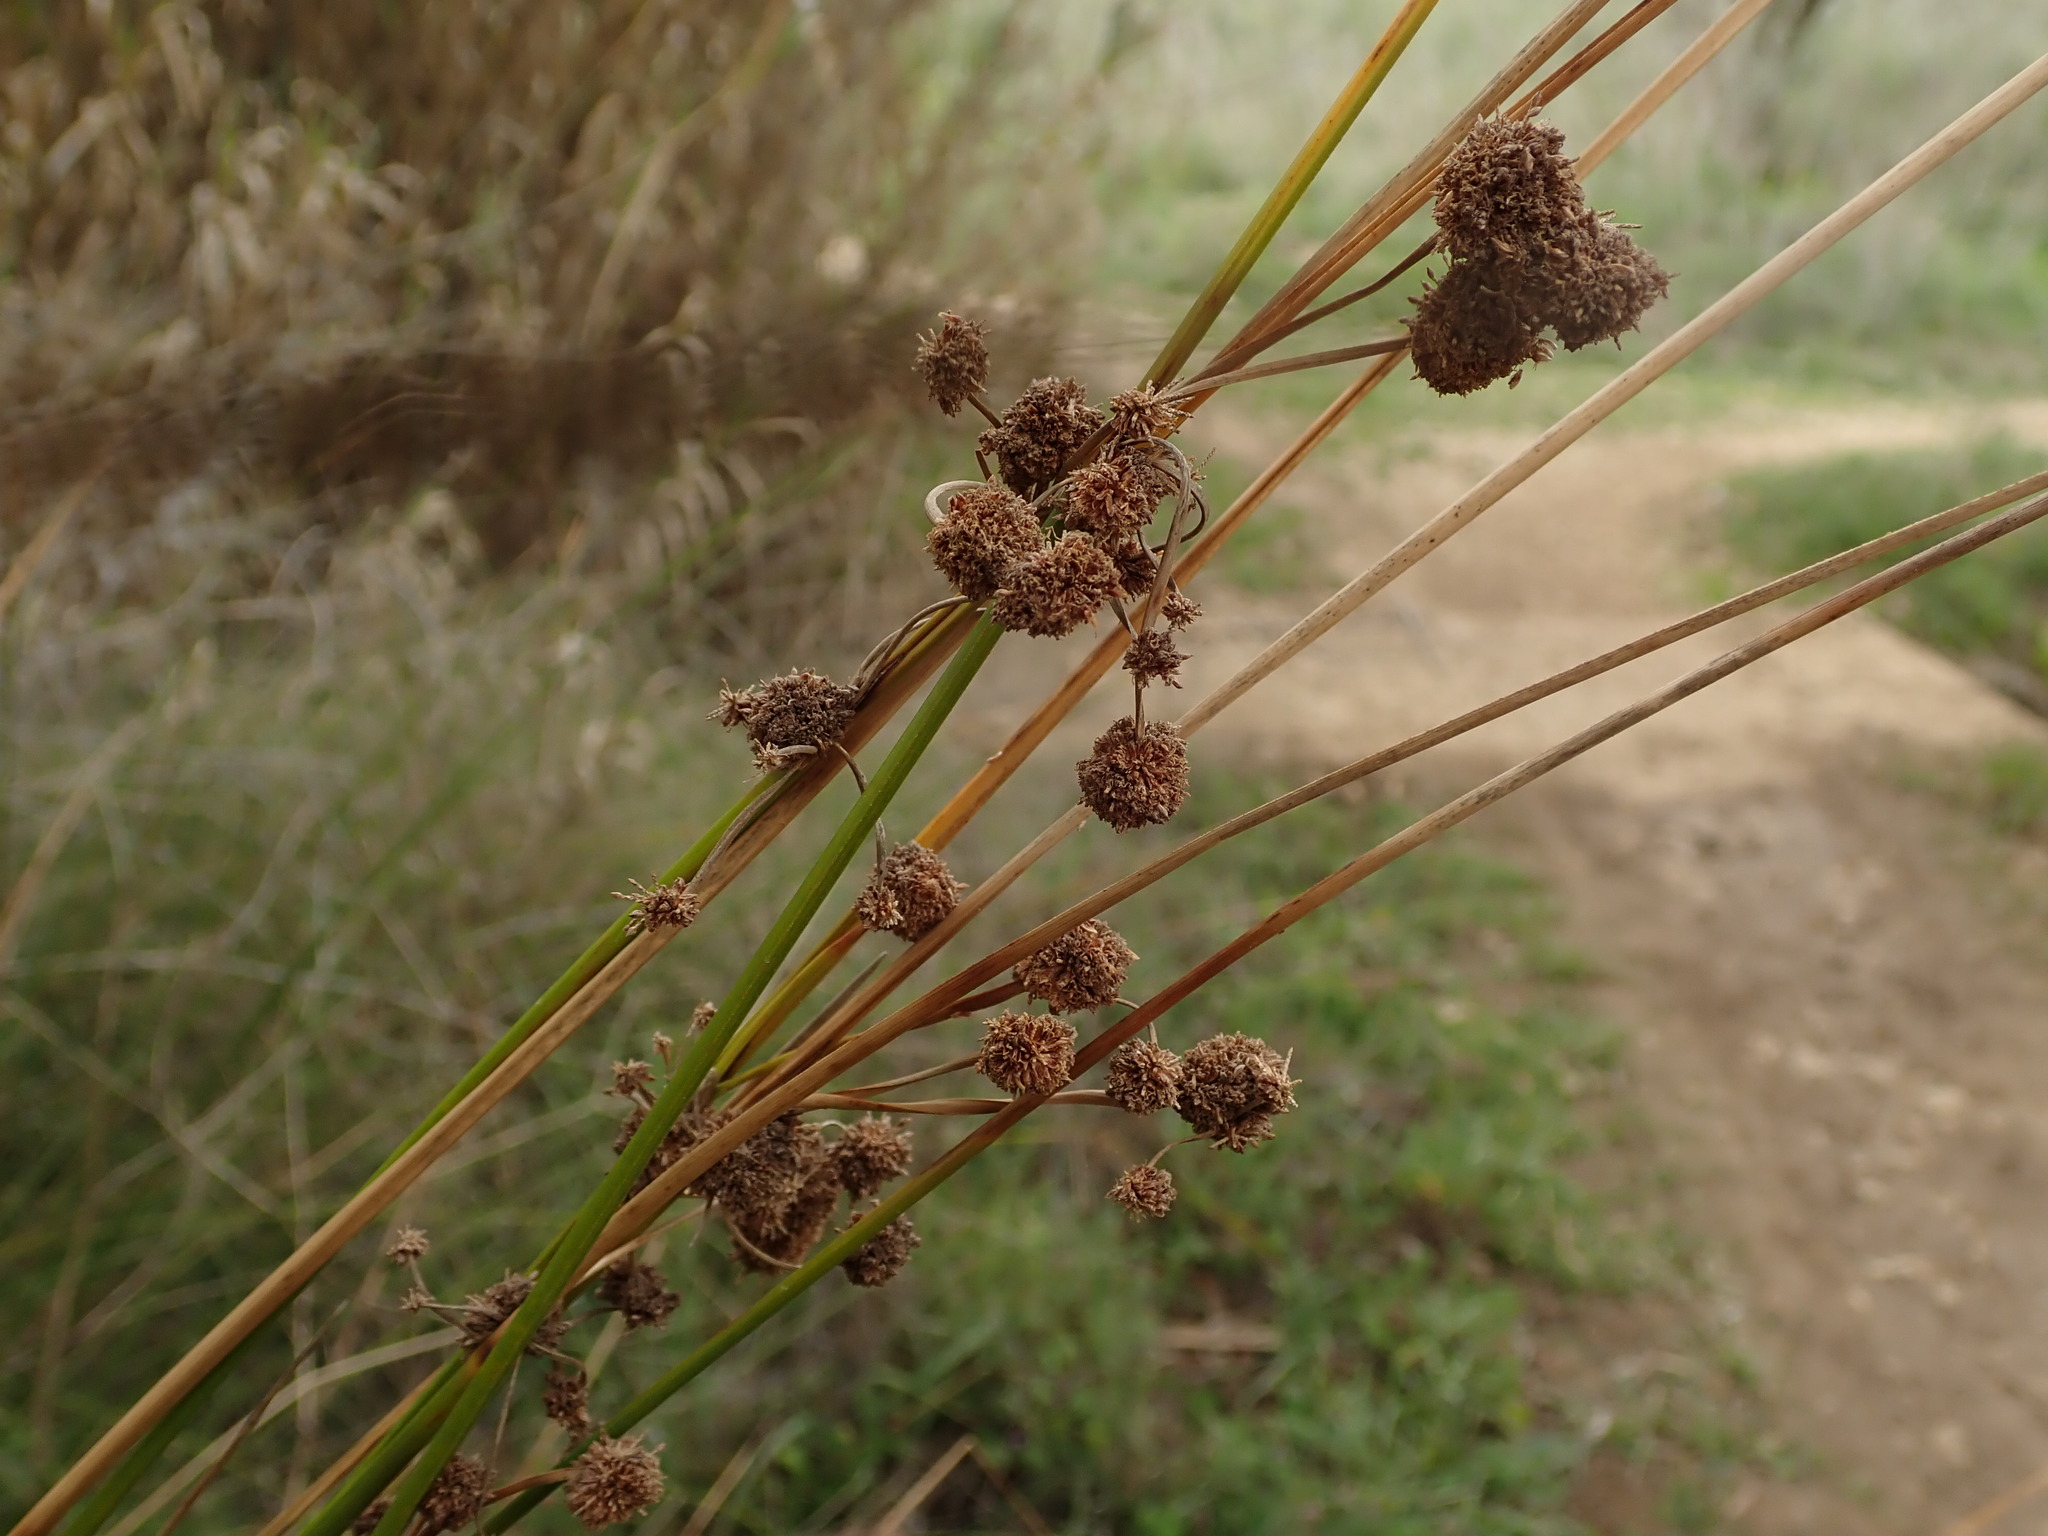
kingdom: Plantae
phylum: Tracheophyta
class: Liliopsida
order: Poales
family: Cyperaceae
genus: Scirpoides
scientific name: Scirpoides holoschoenus
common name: Round-headed club-rush
